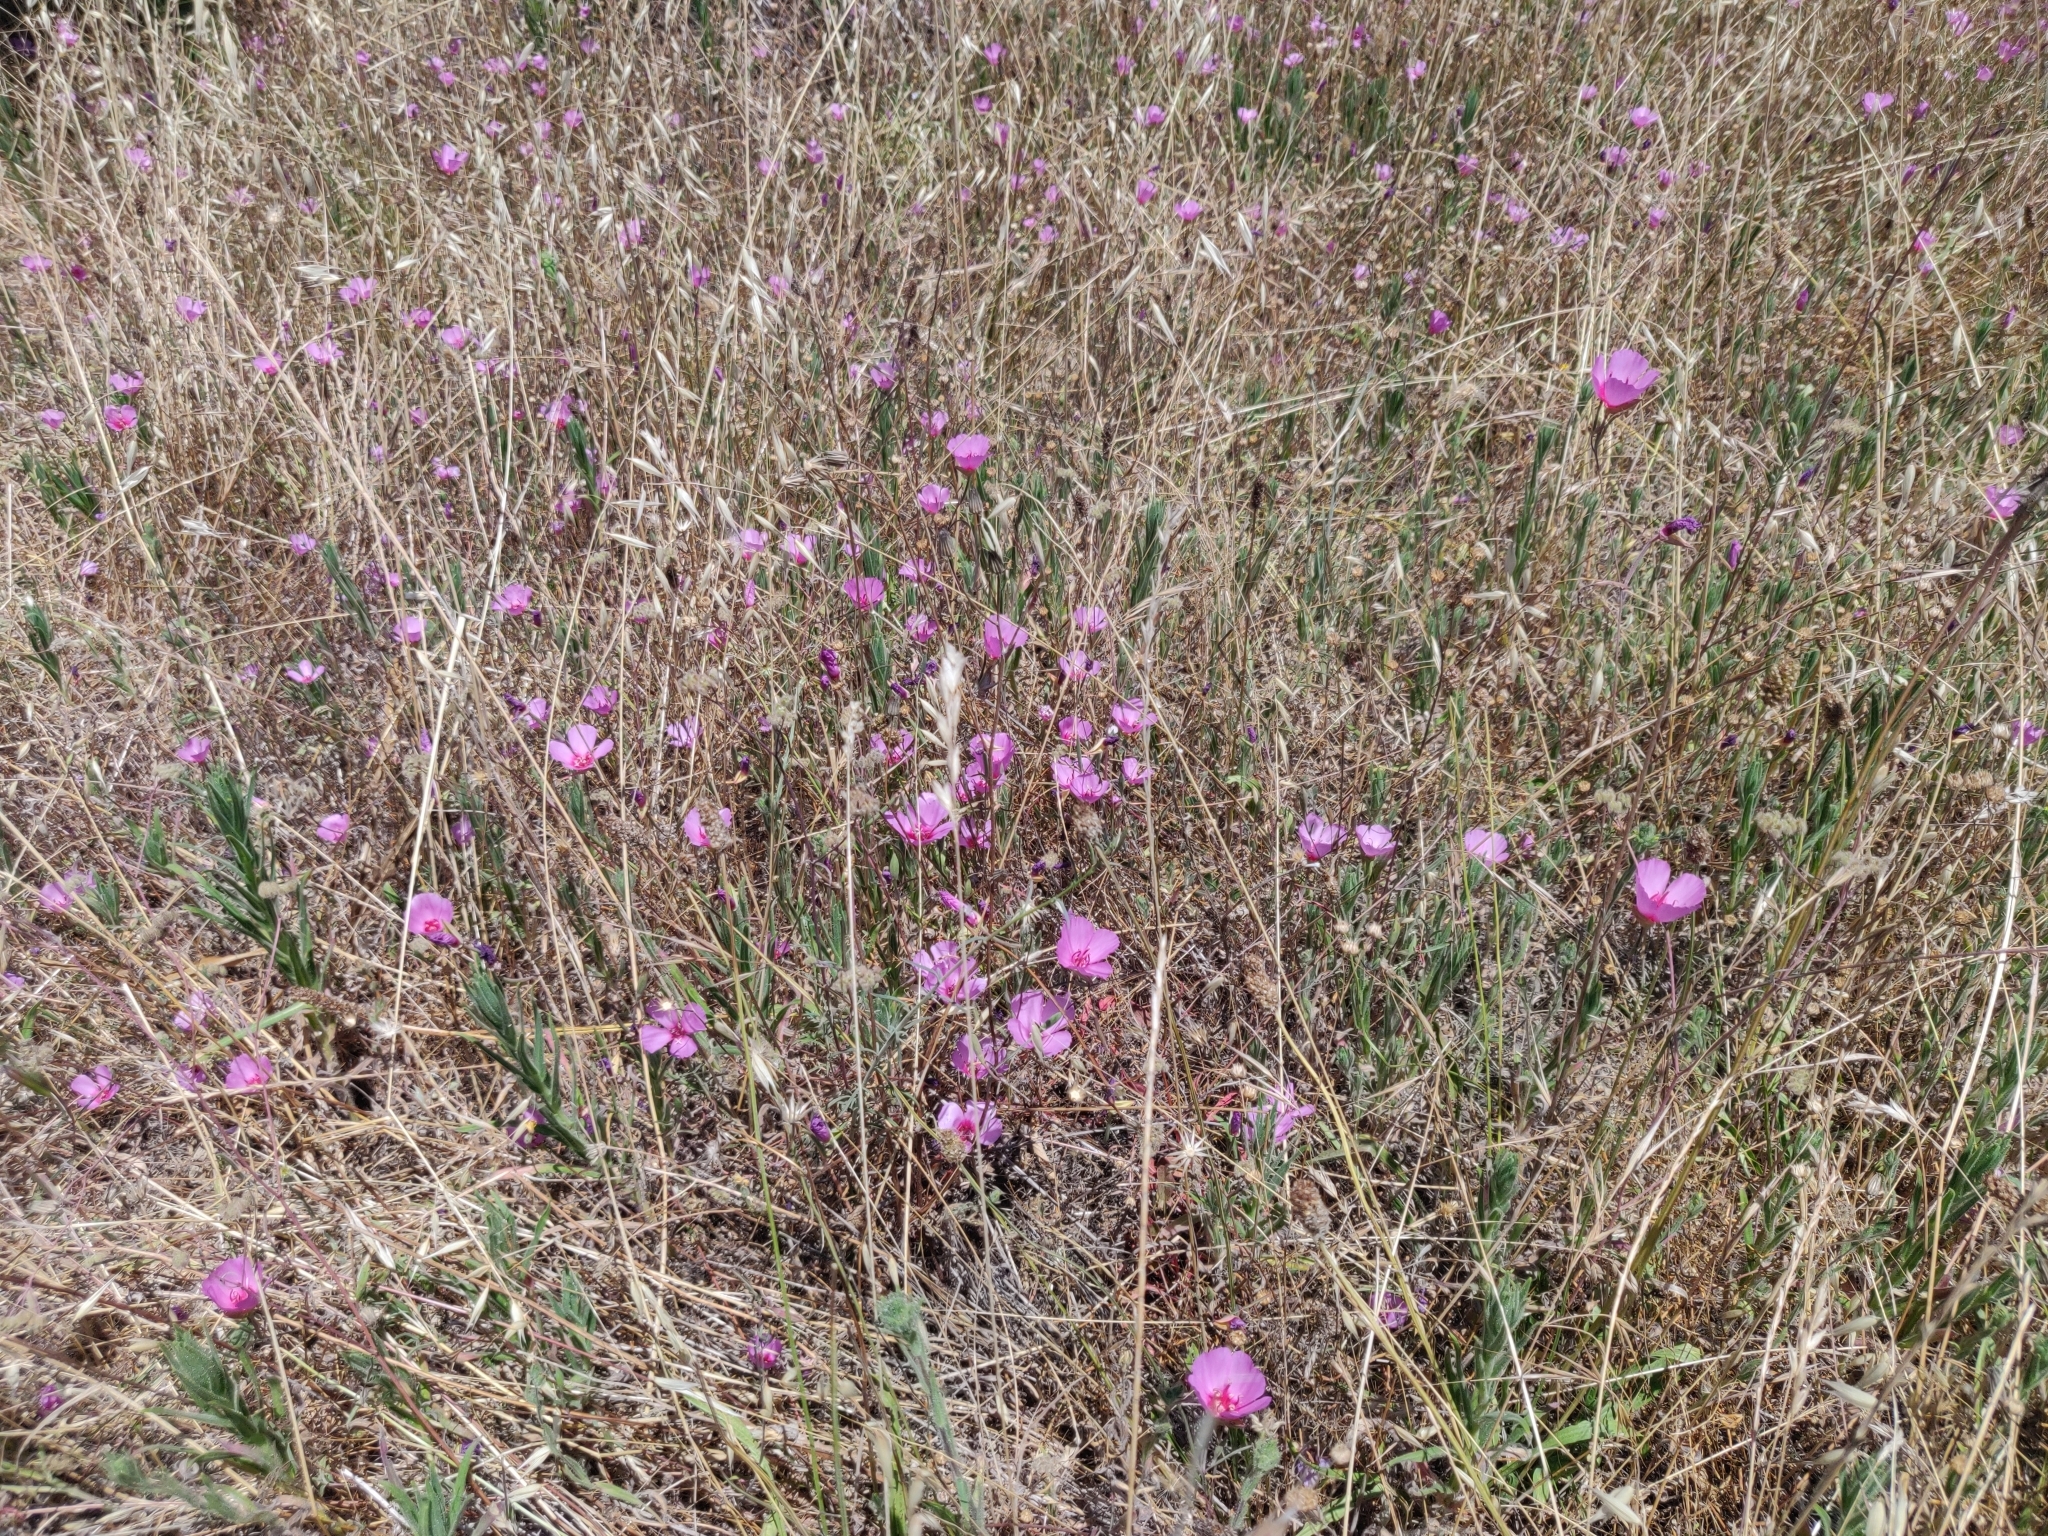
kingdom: Plantae
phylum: Tracheophyta
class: Magnoliopsida
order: Myrtales
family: Onagraceae
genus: Clarkia
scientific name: Clarkia rubicunda
